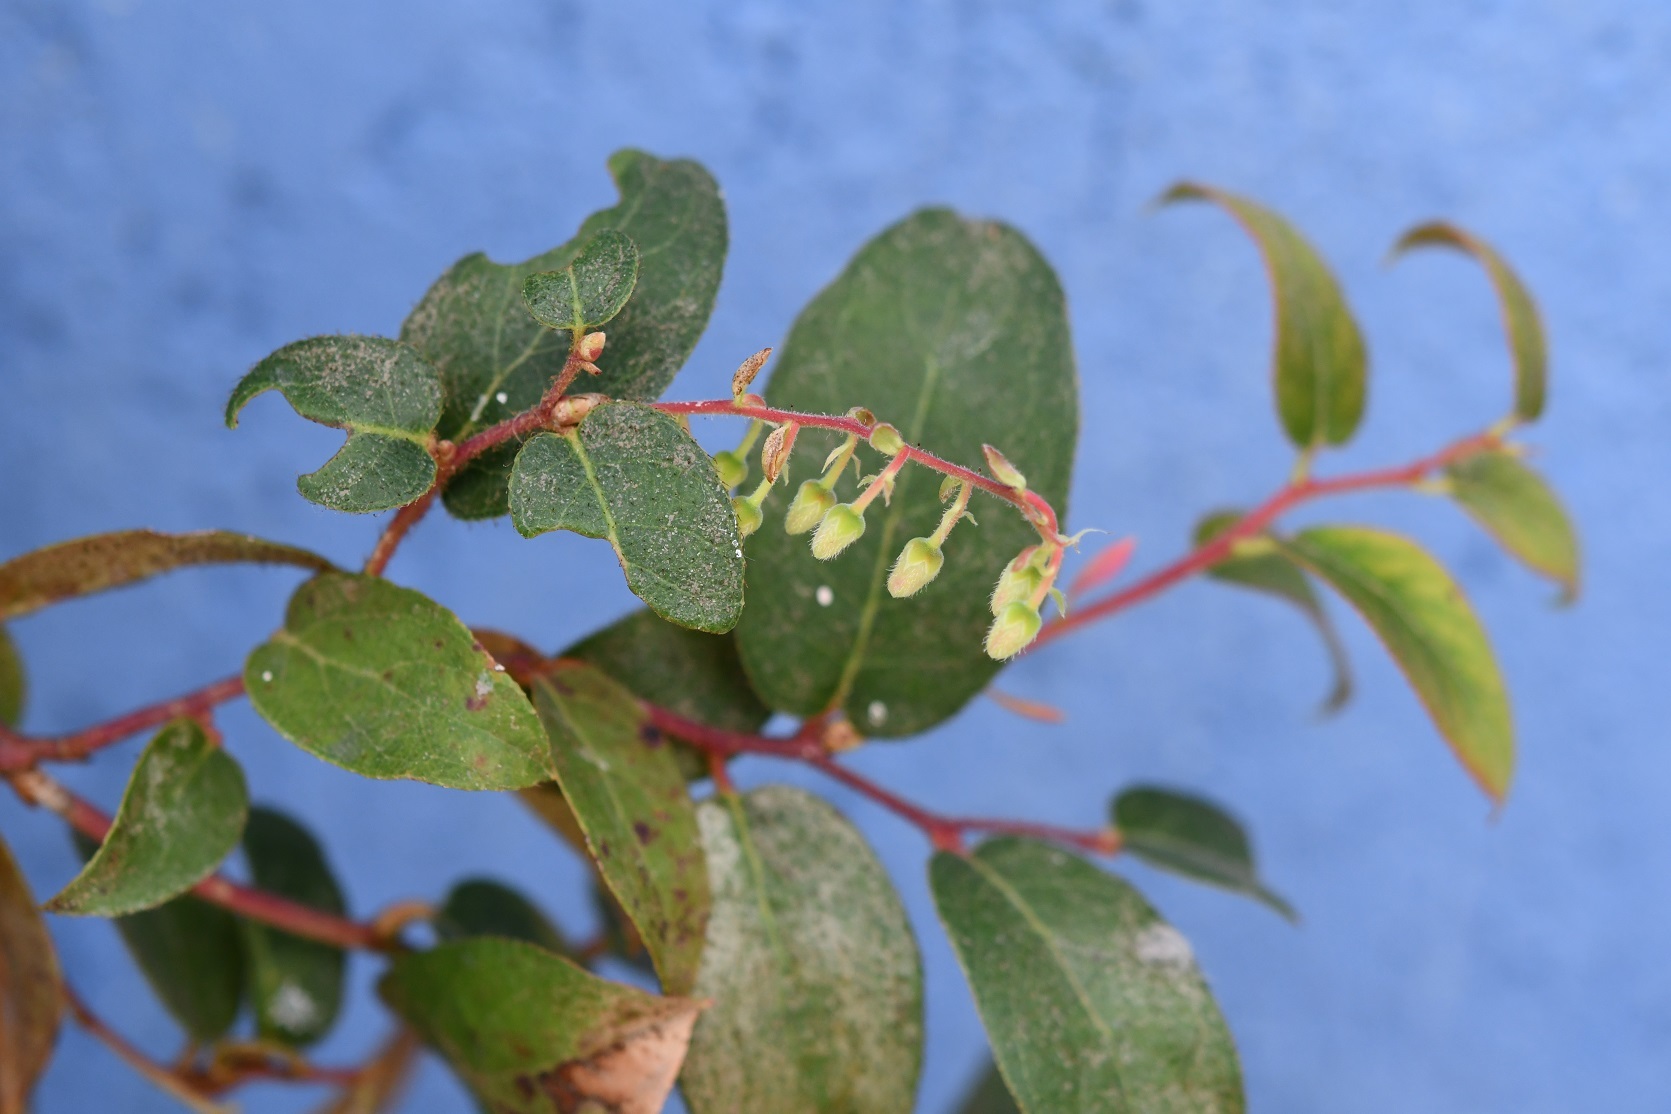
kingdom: Plantae
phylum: Tracheophyta
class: Magnoliopsida
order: Ericales
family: Ericaceae
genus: Gaultheria
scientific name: Gaultheria erecta
